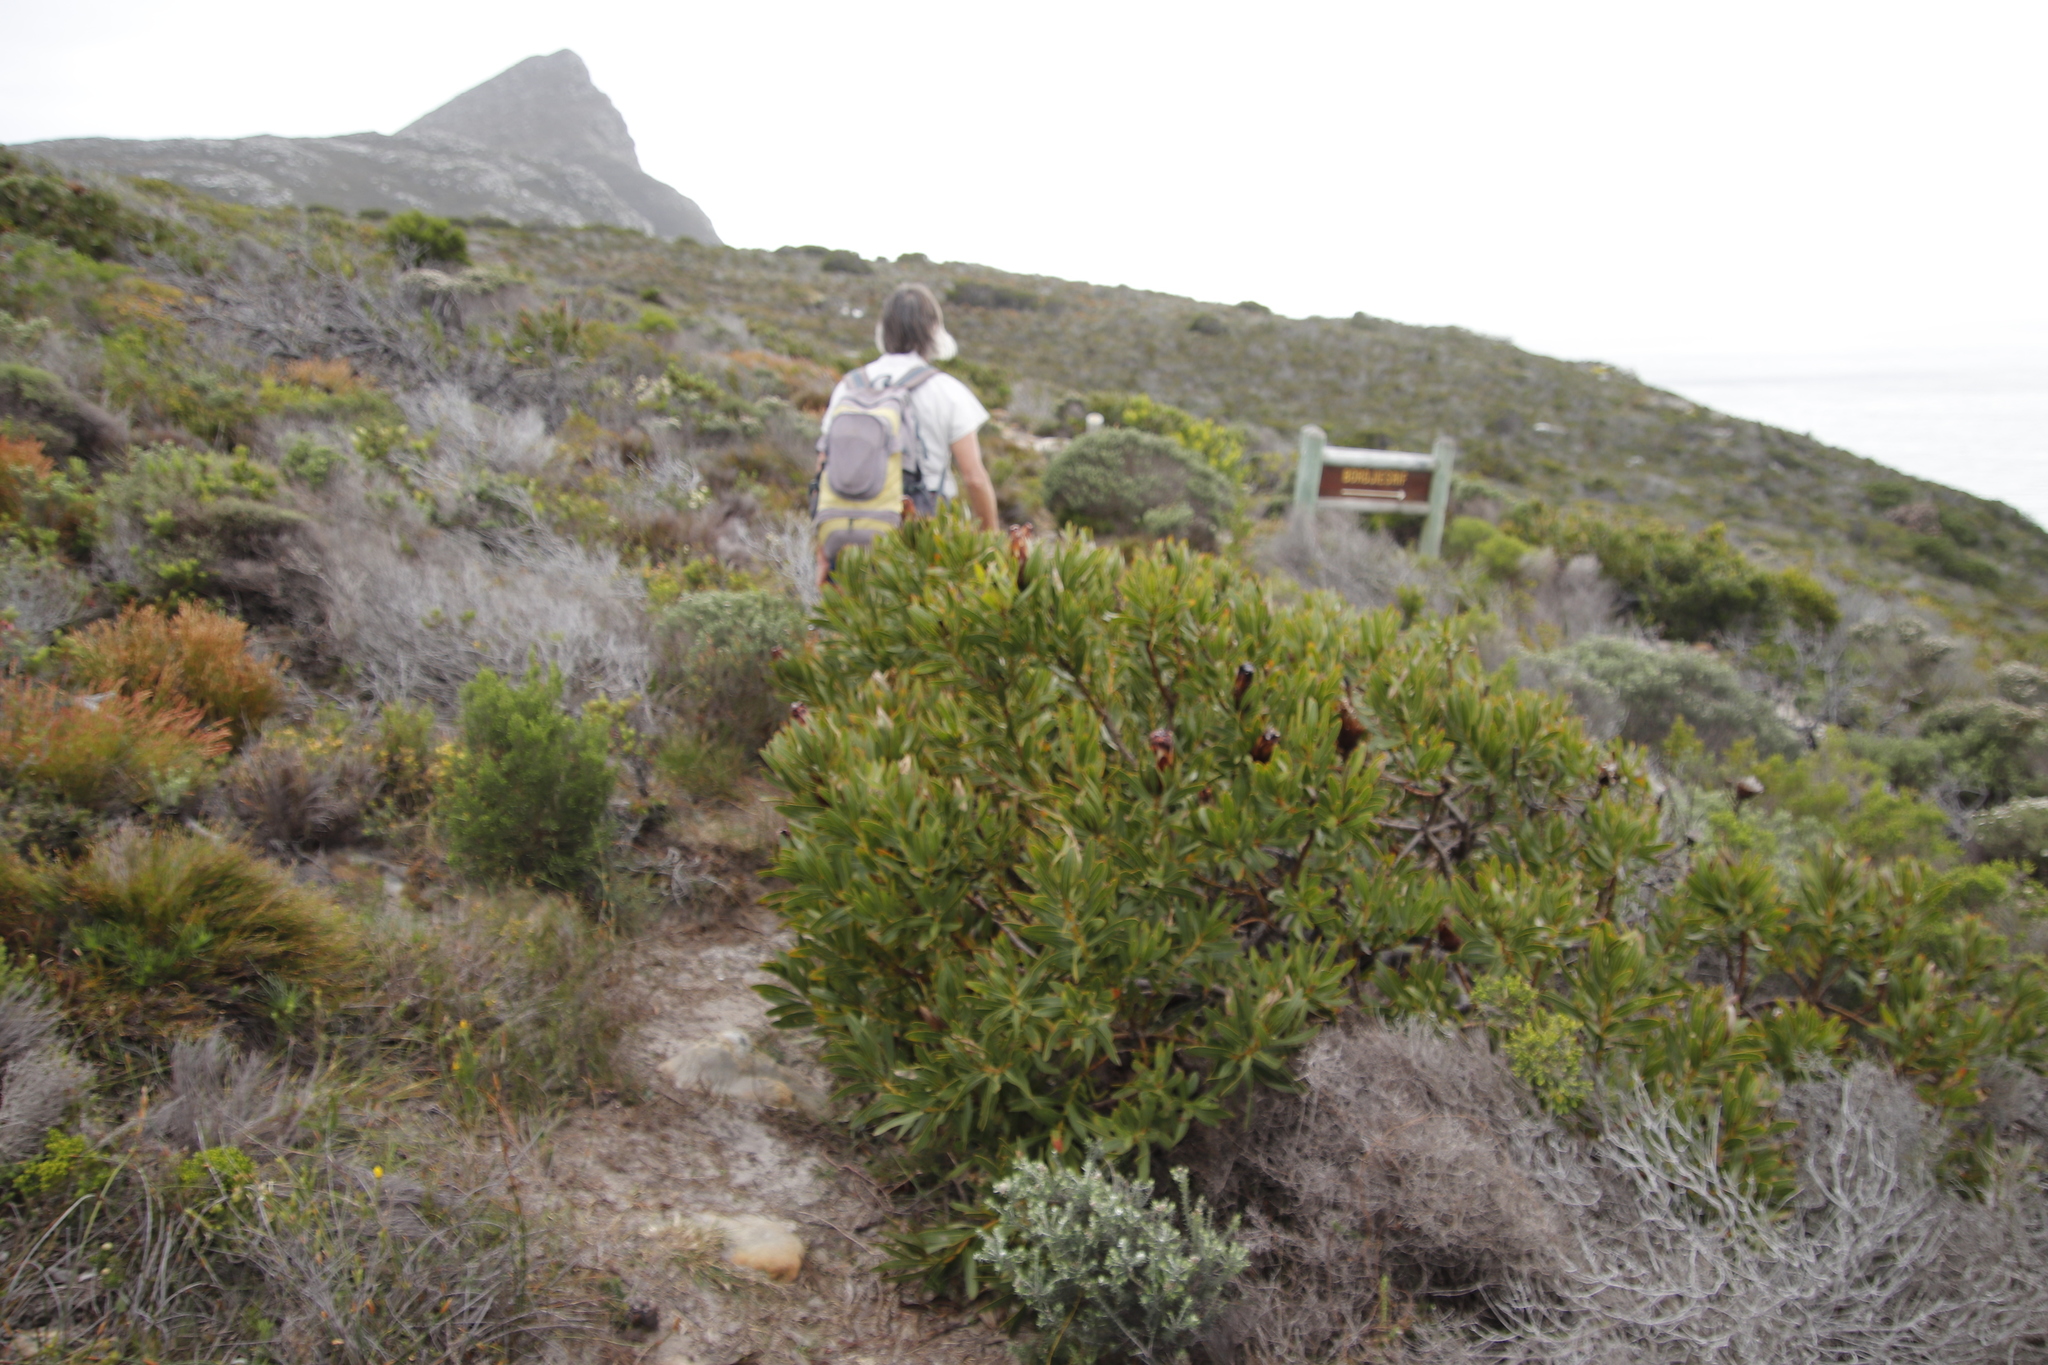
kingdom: Plantae
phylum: Tracheophyta
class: Magnoliopsida
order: Proteales
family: Proteaceae
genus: Protea
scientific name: Protea lepidocarpodendron
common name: Black-bearded protea
